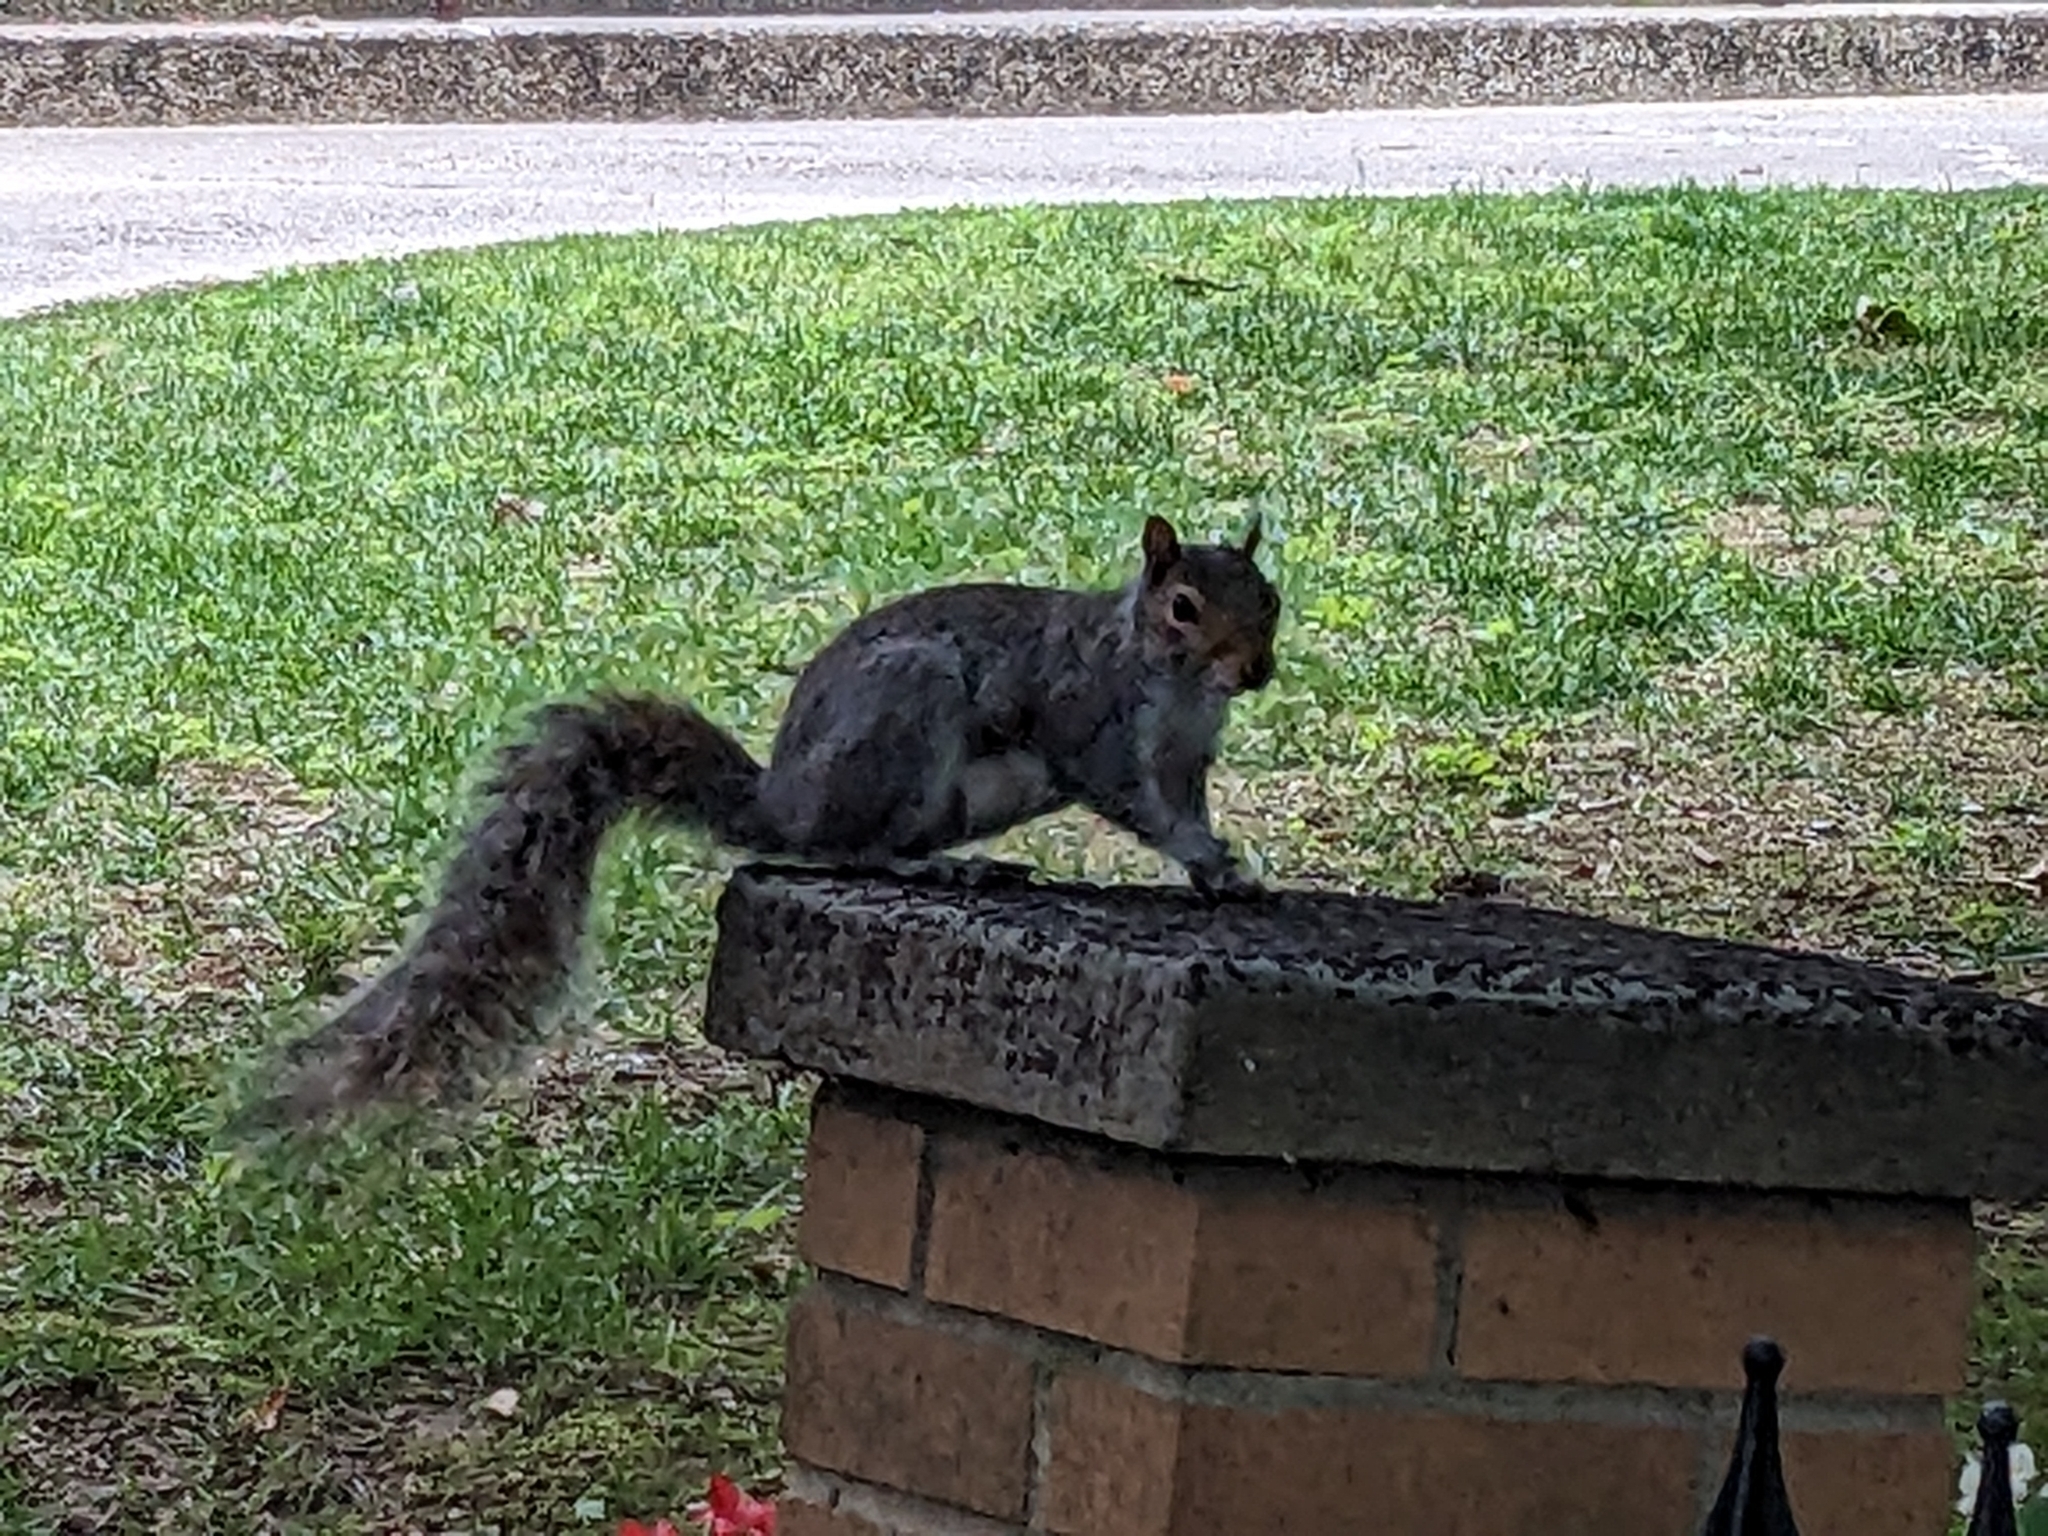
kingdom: Animalia
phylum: Chordata
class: Mammalia
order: Rodentia
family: Sciuridae
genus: Sciurus
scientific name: Sciurus carolinensis
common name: Eastern gray squirrel
